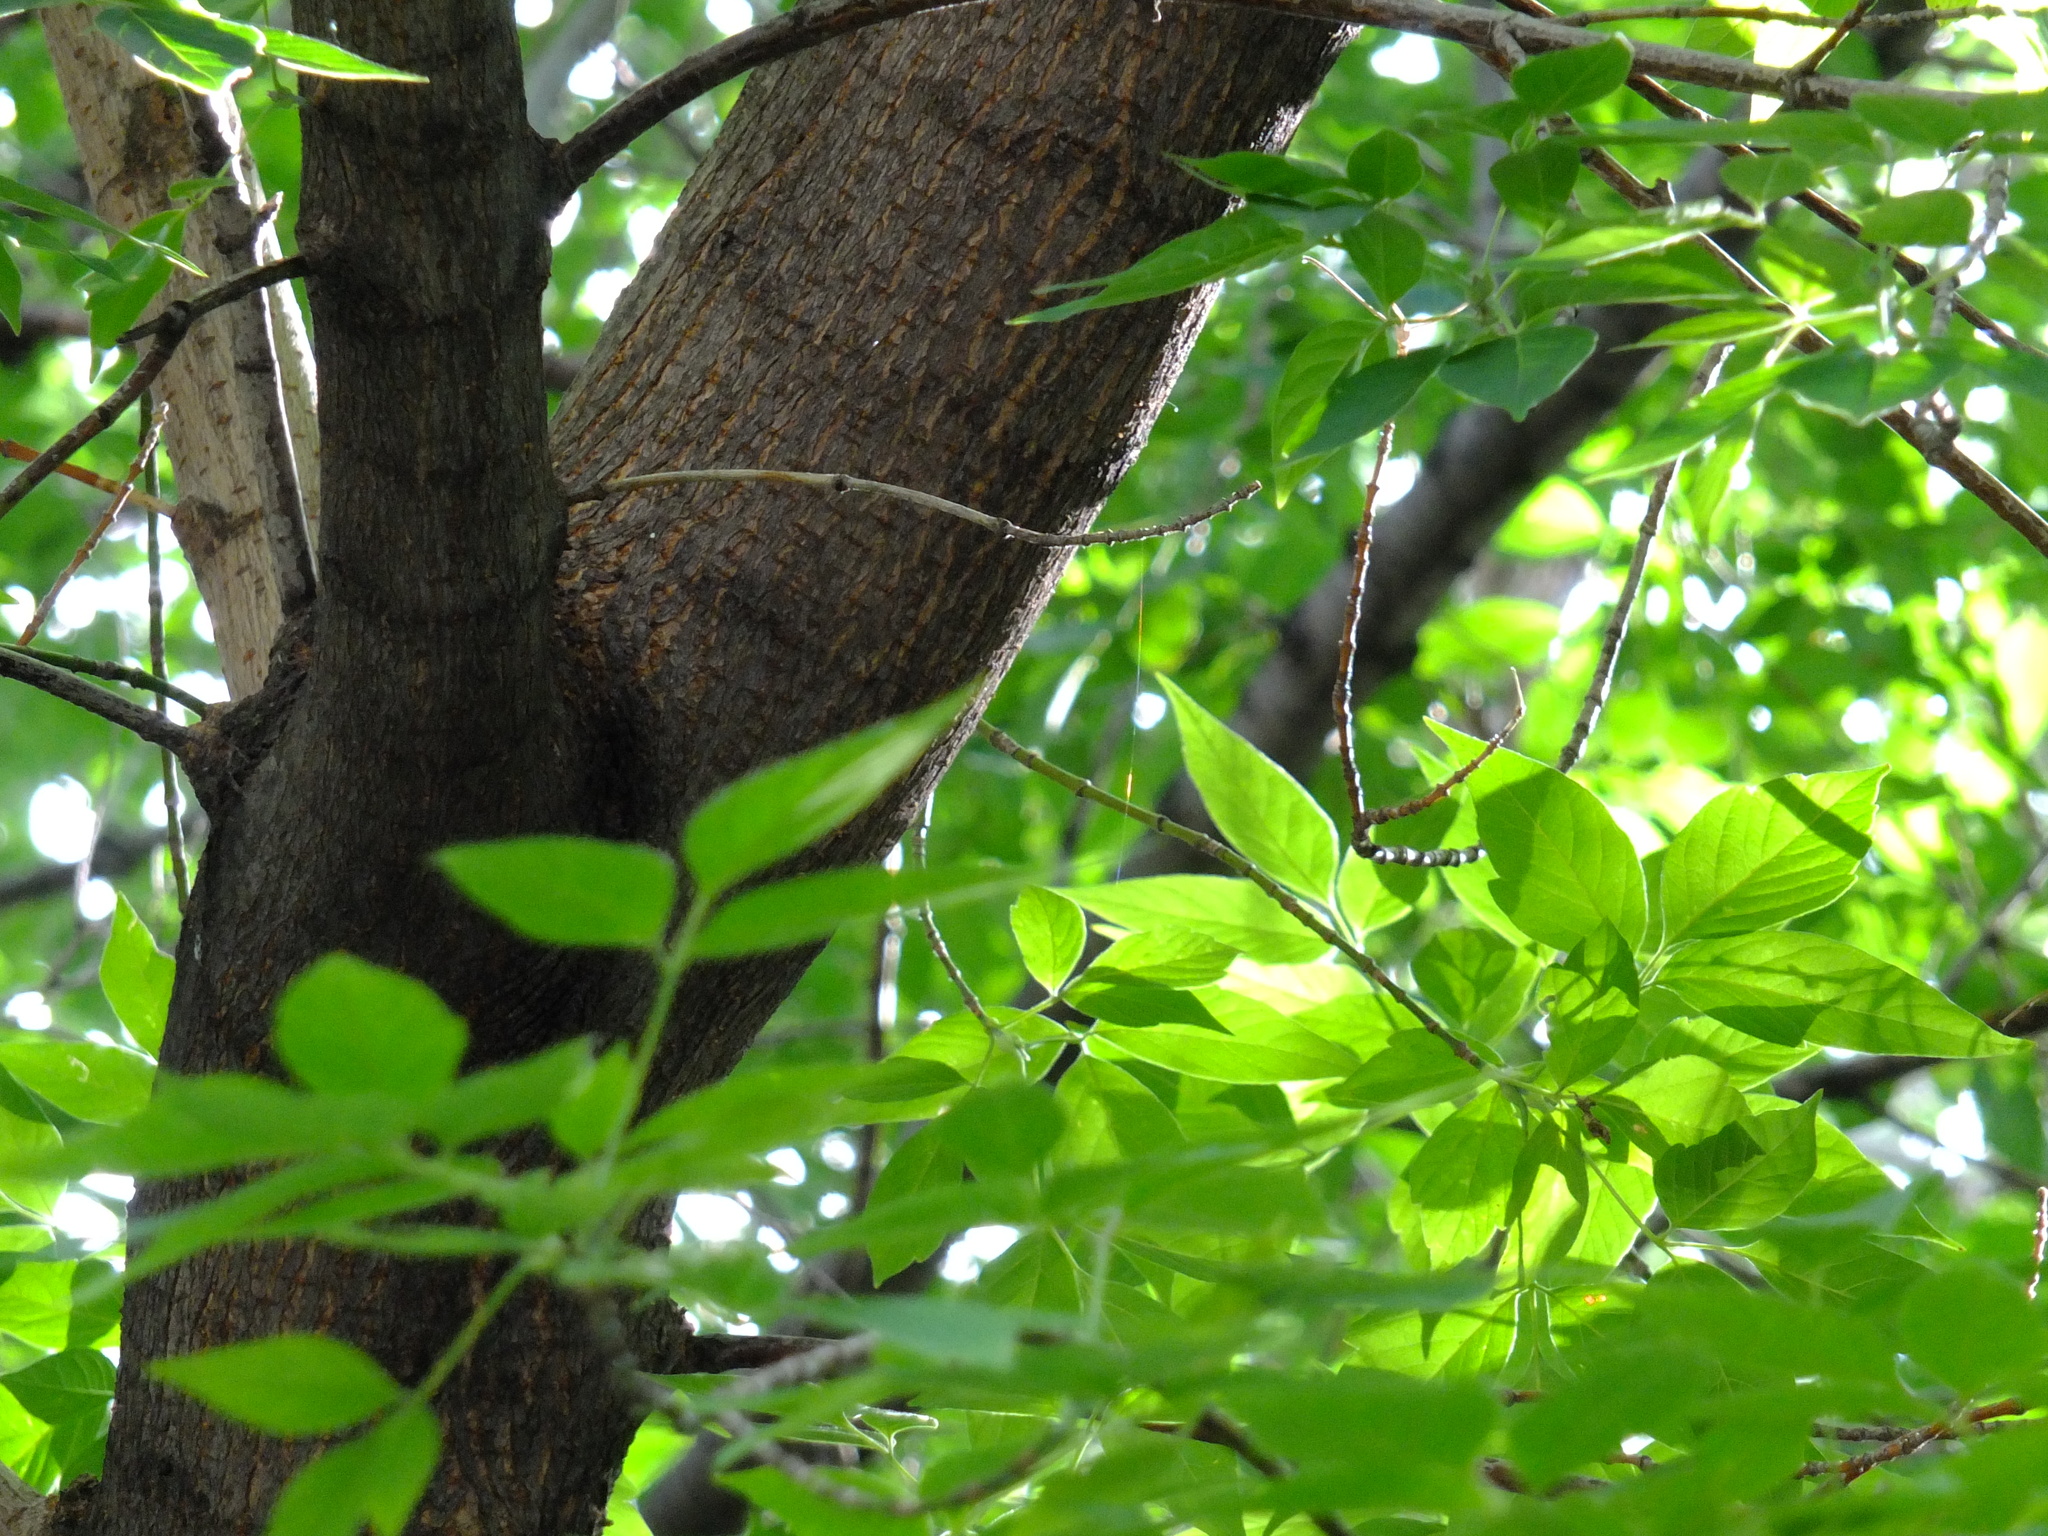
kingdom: Plantae
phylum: Tracheophyta
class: Magnoliopsida
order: Sapindales
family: Sapindaceae
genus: Acer
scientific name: Acer negundo
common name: Ashleaf maple
